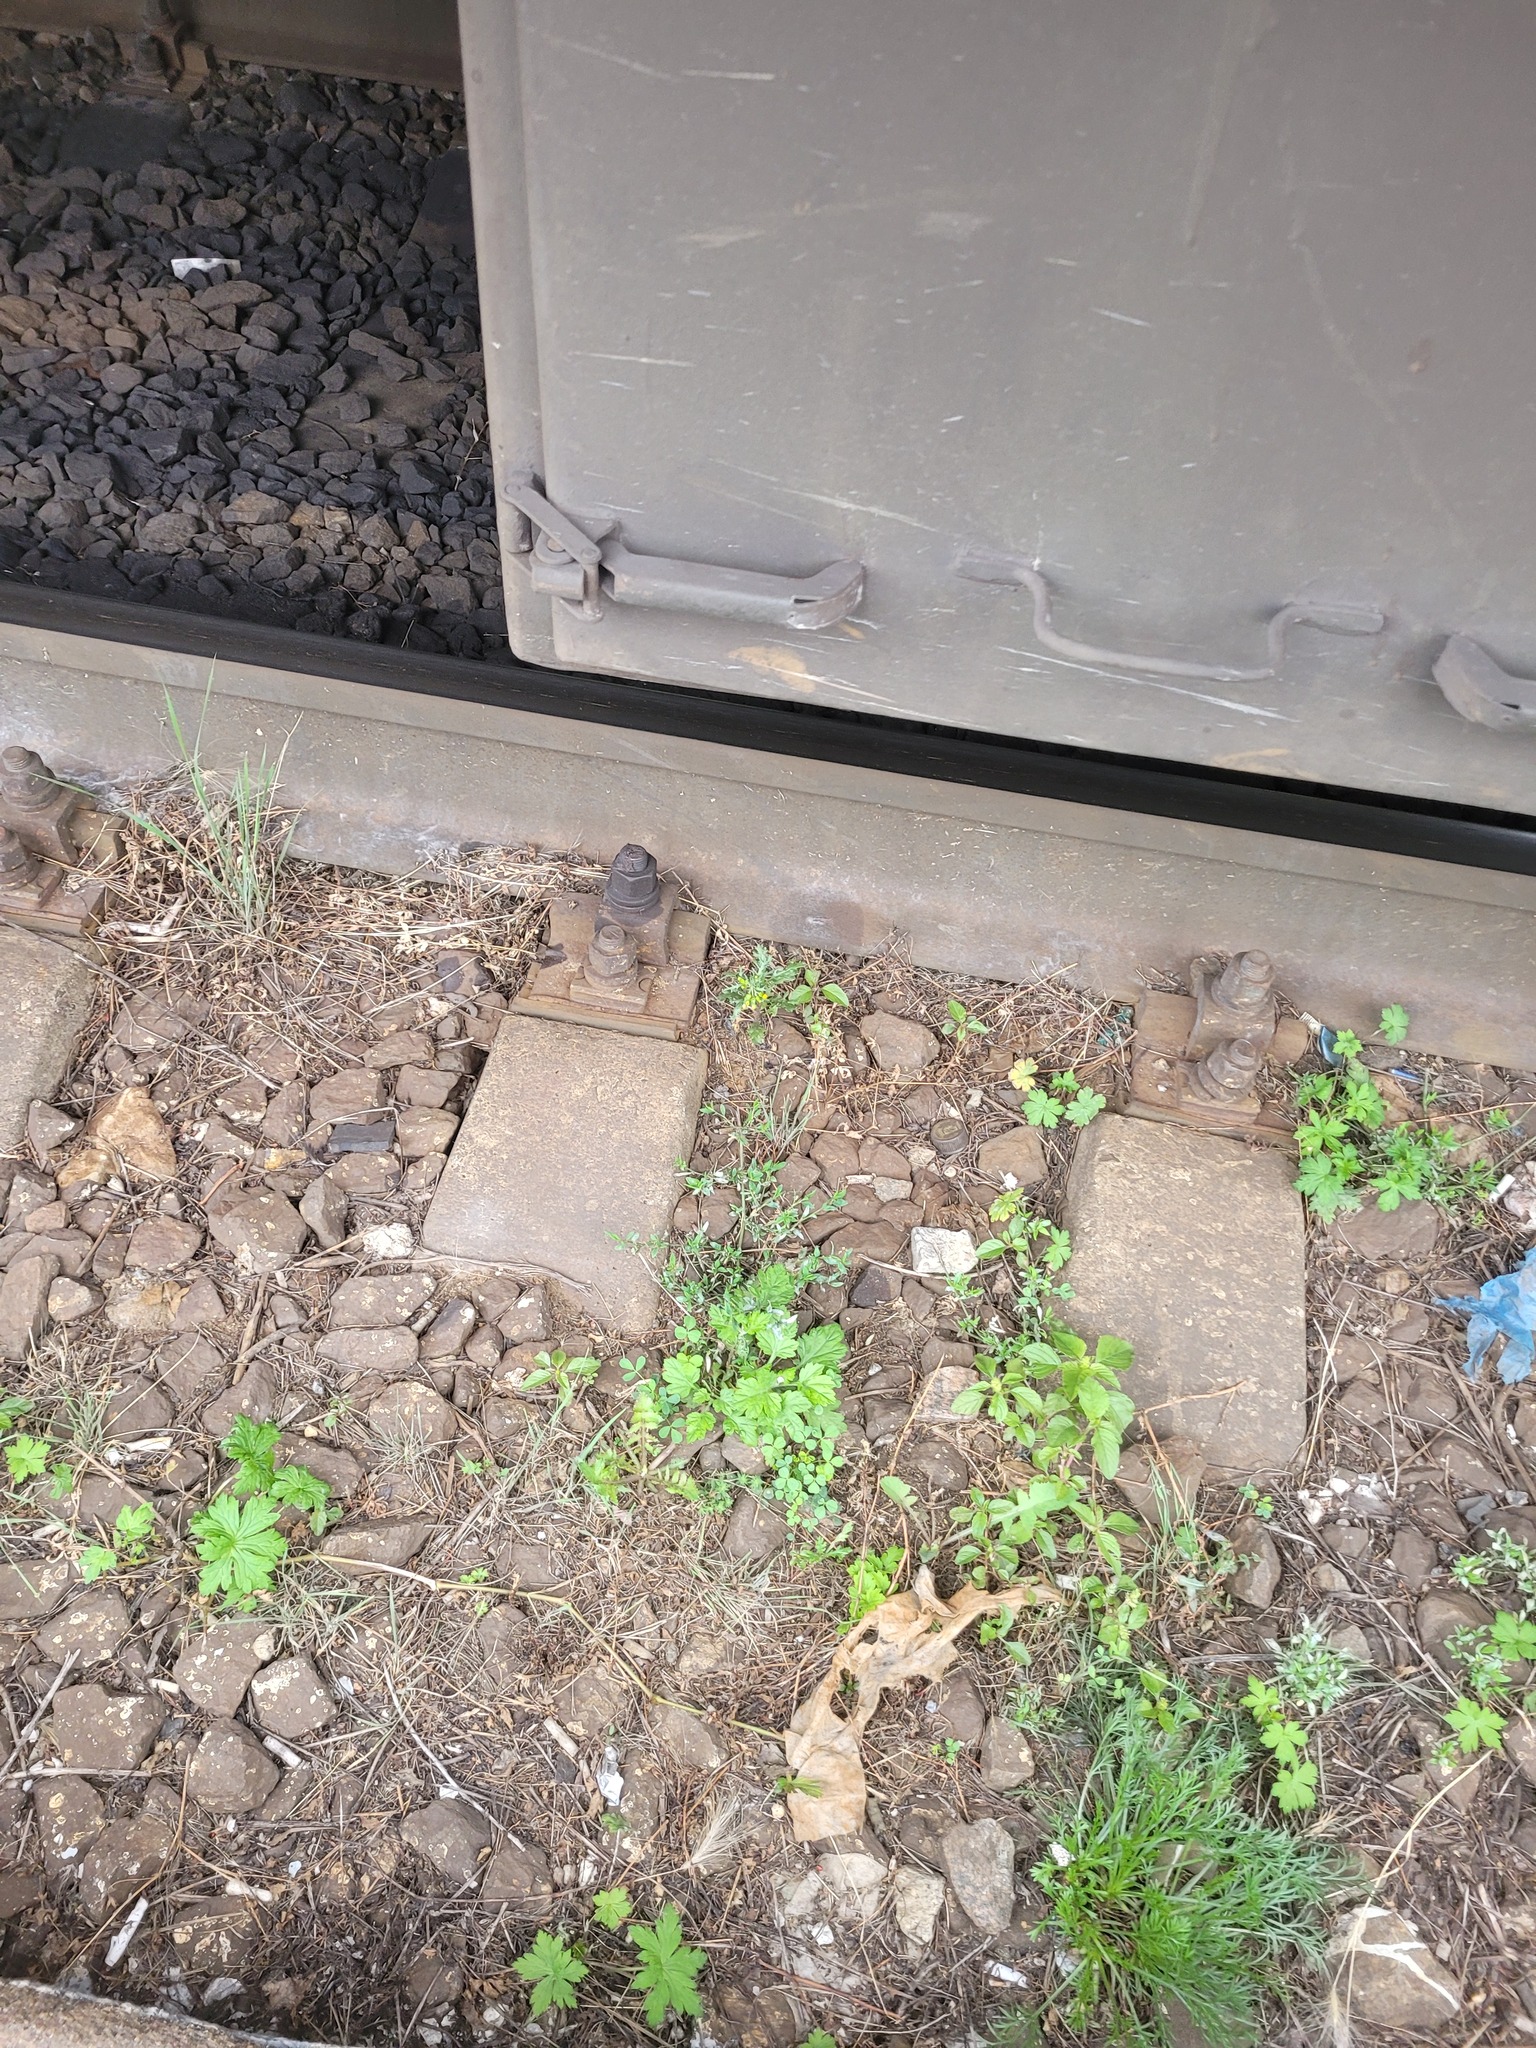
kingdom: Plantae
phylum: Tracheophyta
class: Magnoliopsida
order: Asterales
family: Asteraceae
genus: Artemisia
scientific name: Artemisia vulgaris
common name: Mugwort
